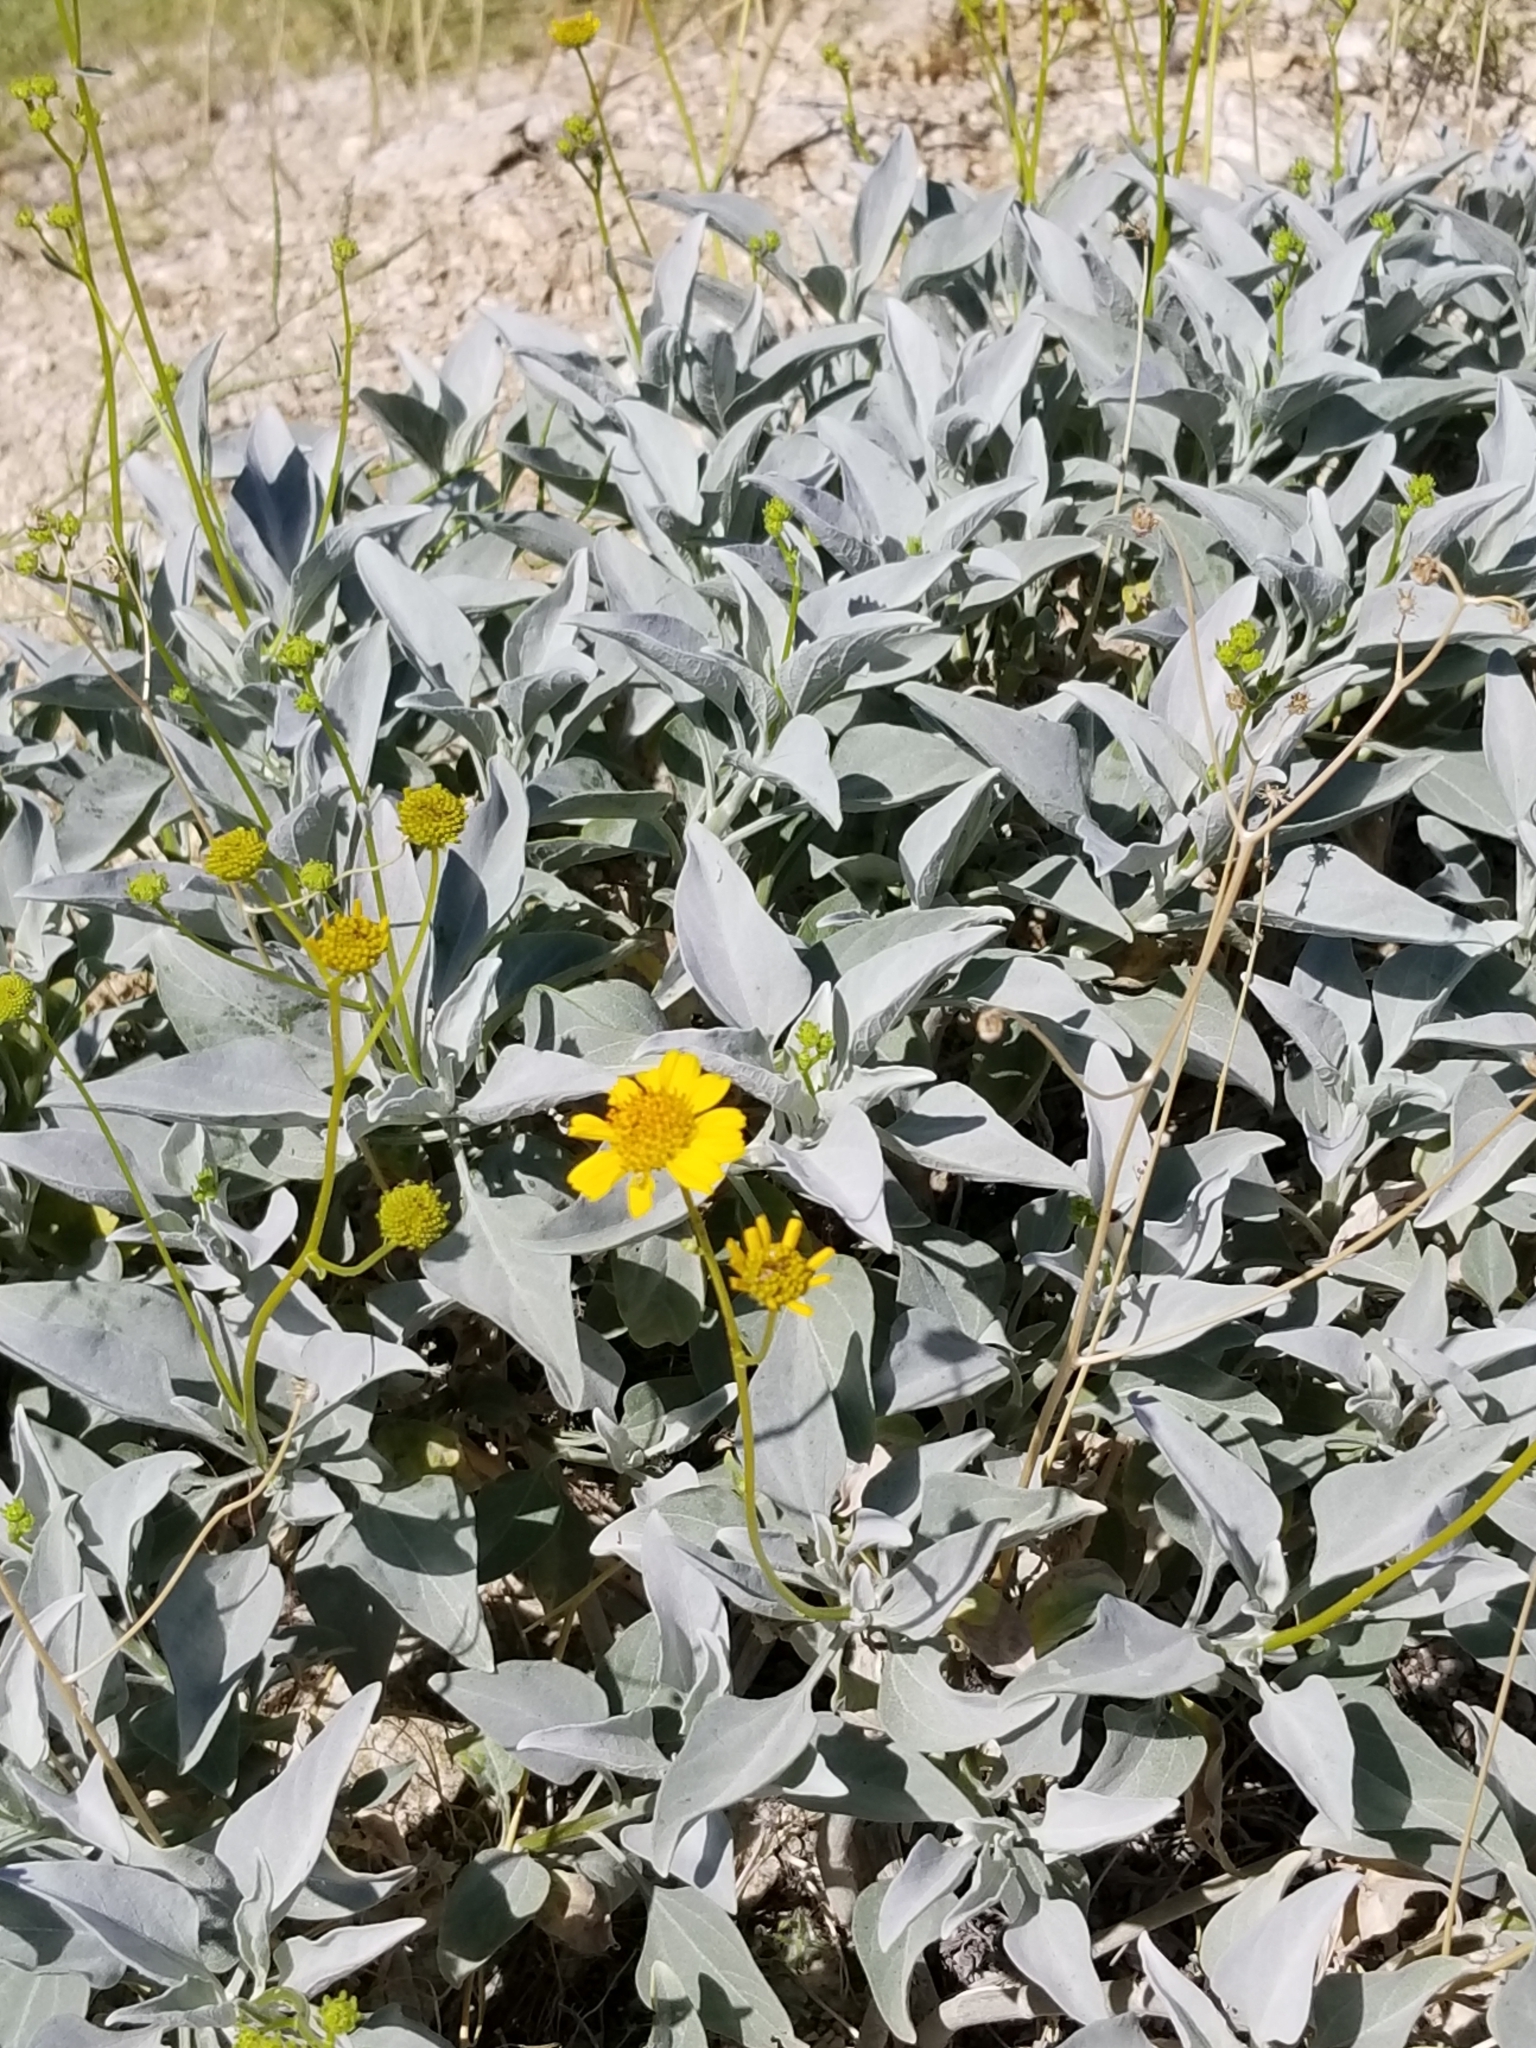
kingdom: Plantae
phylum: Tracheophyta
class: Magnoliopsida
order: Asterales
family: Asteraceae
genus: Encelia
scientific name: Encelia farinosa
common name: Brittlebush
